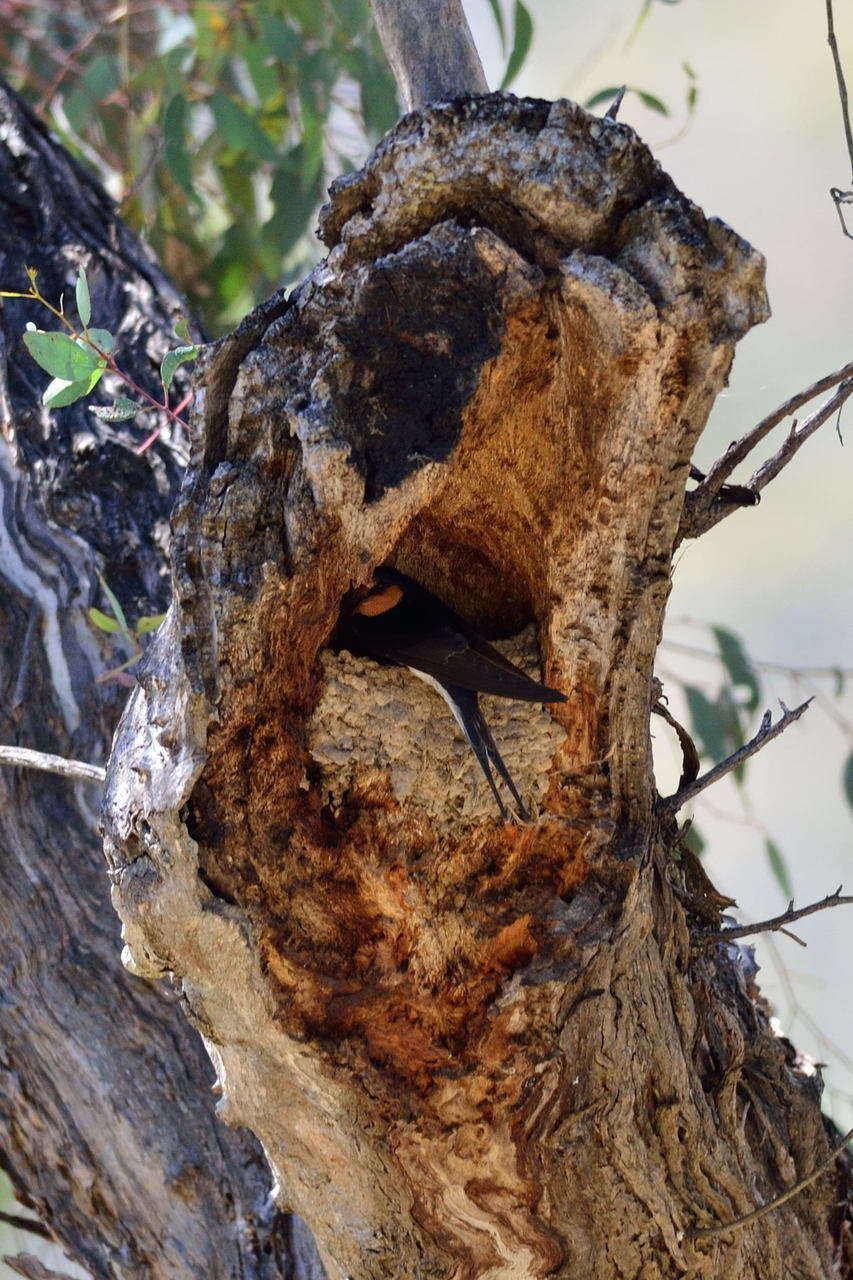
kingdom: Animalia
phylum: Chordata
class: Aves
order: Passeriformes
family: Hirundinidae
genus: Hirundo
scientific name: Hirundo neoxena
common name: Welcome swallow
